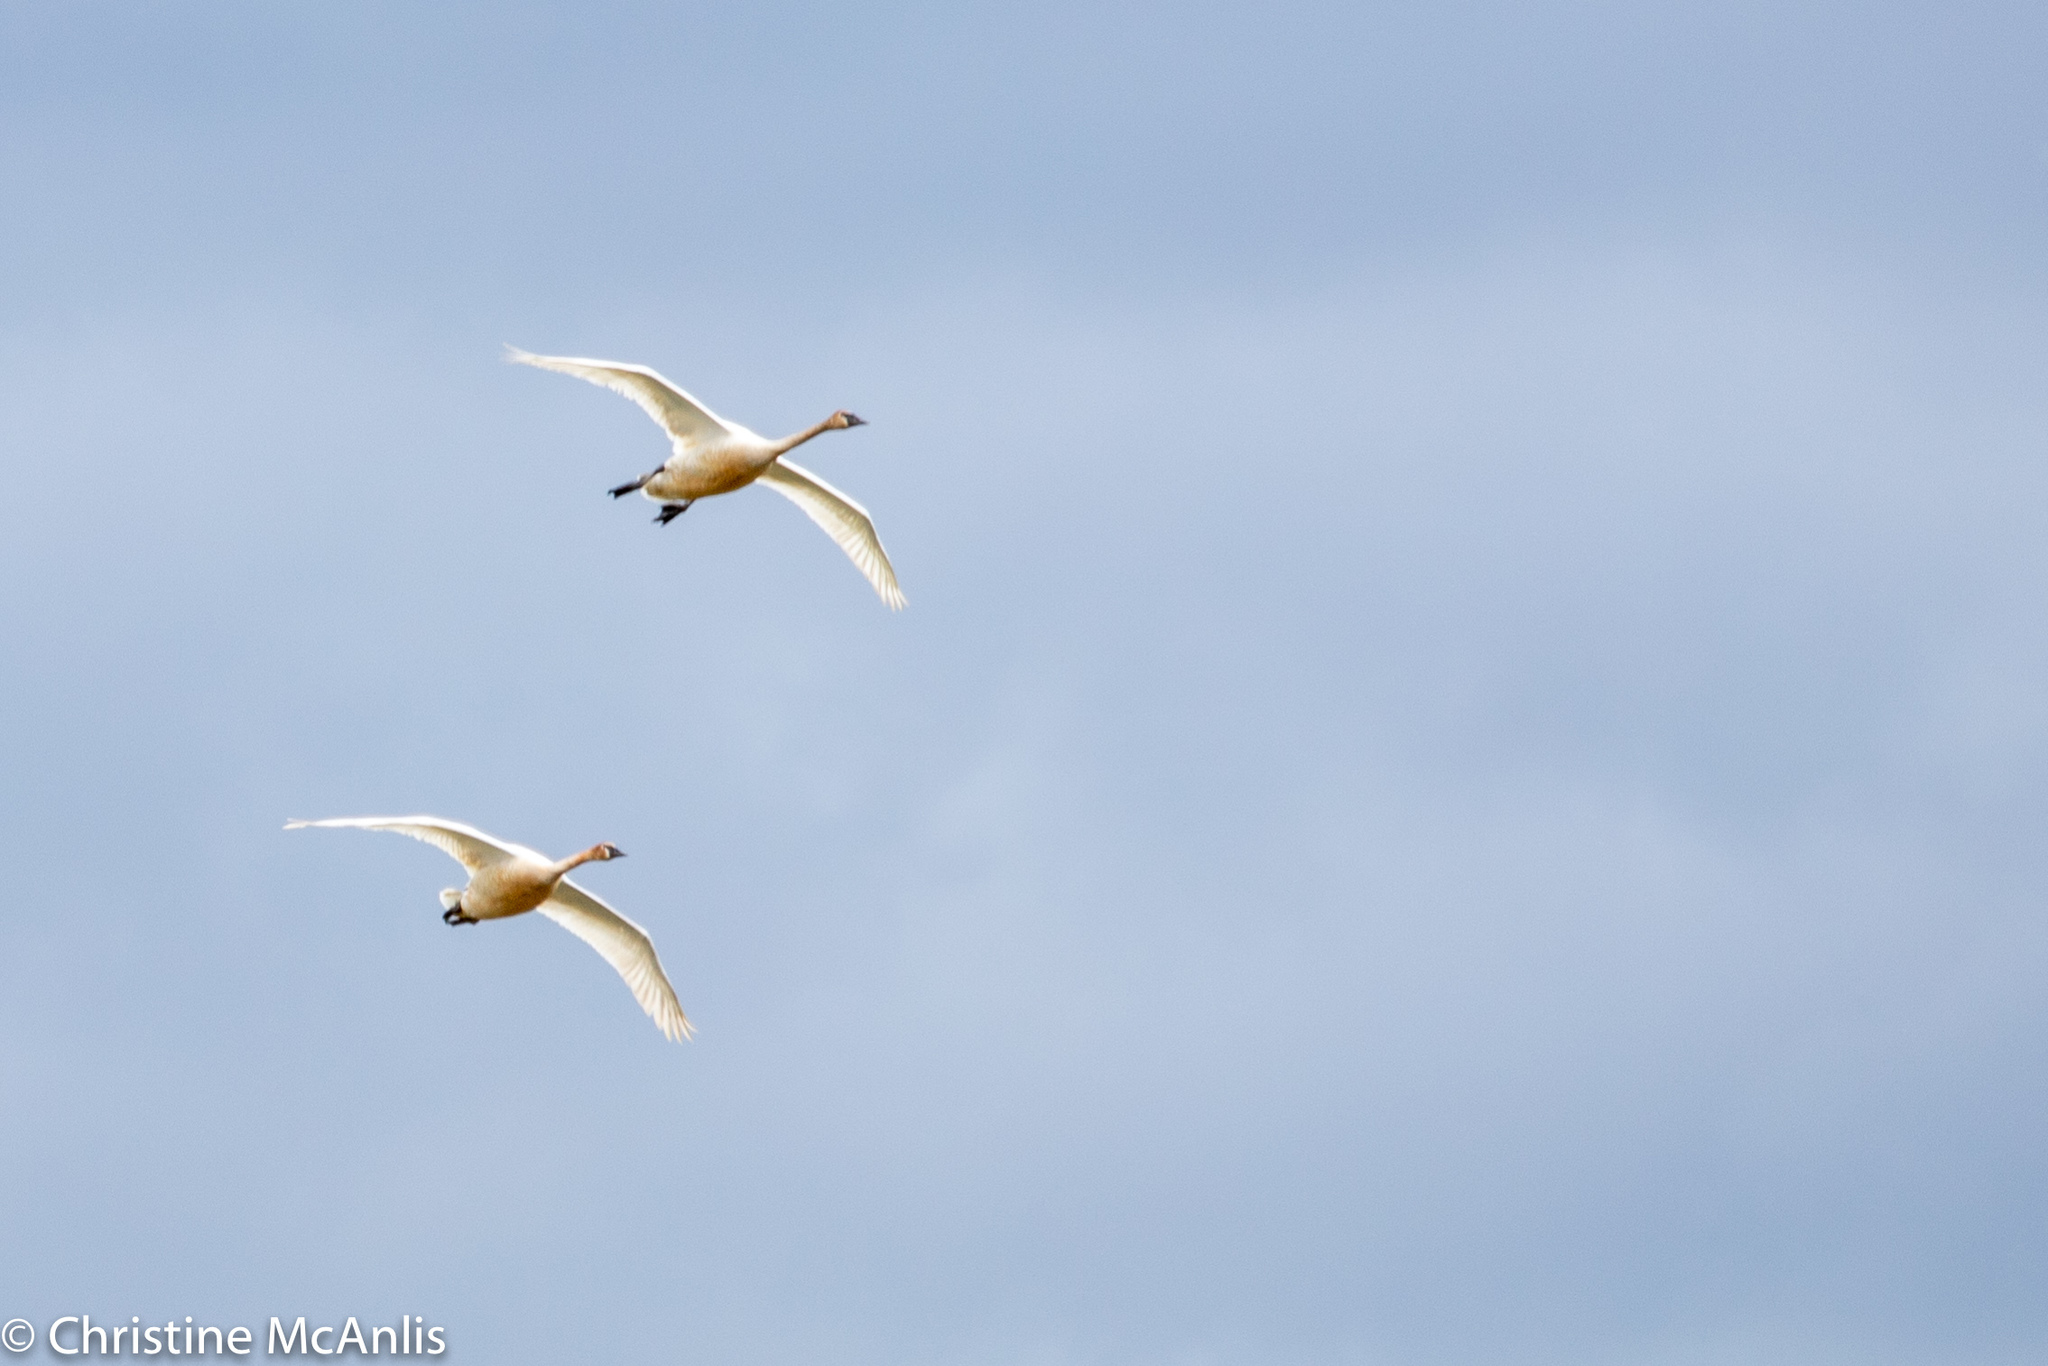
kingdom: Animalia
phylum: Chordata
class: Aves
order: Anseriformes
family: Anatidae
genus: Cygnus
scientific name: Cygnus buccinator
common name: Trumpeter swan
